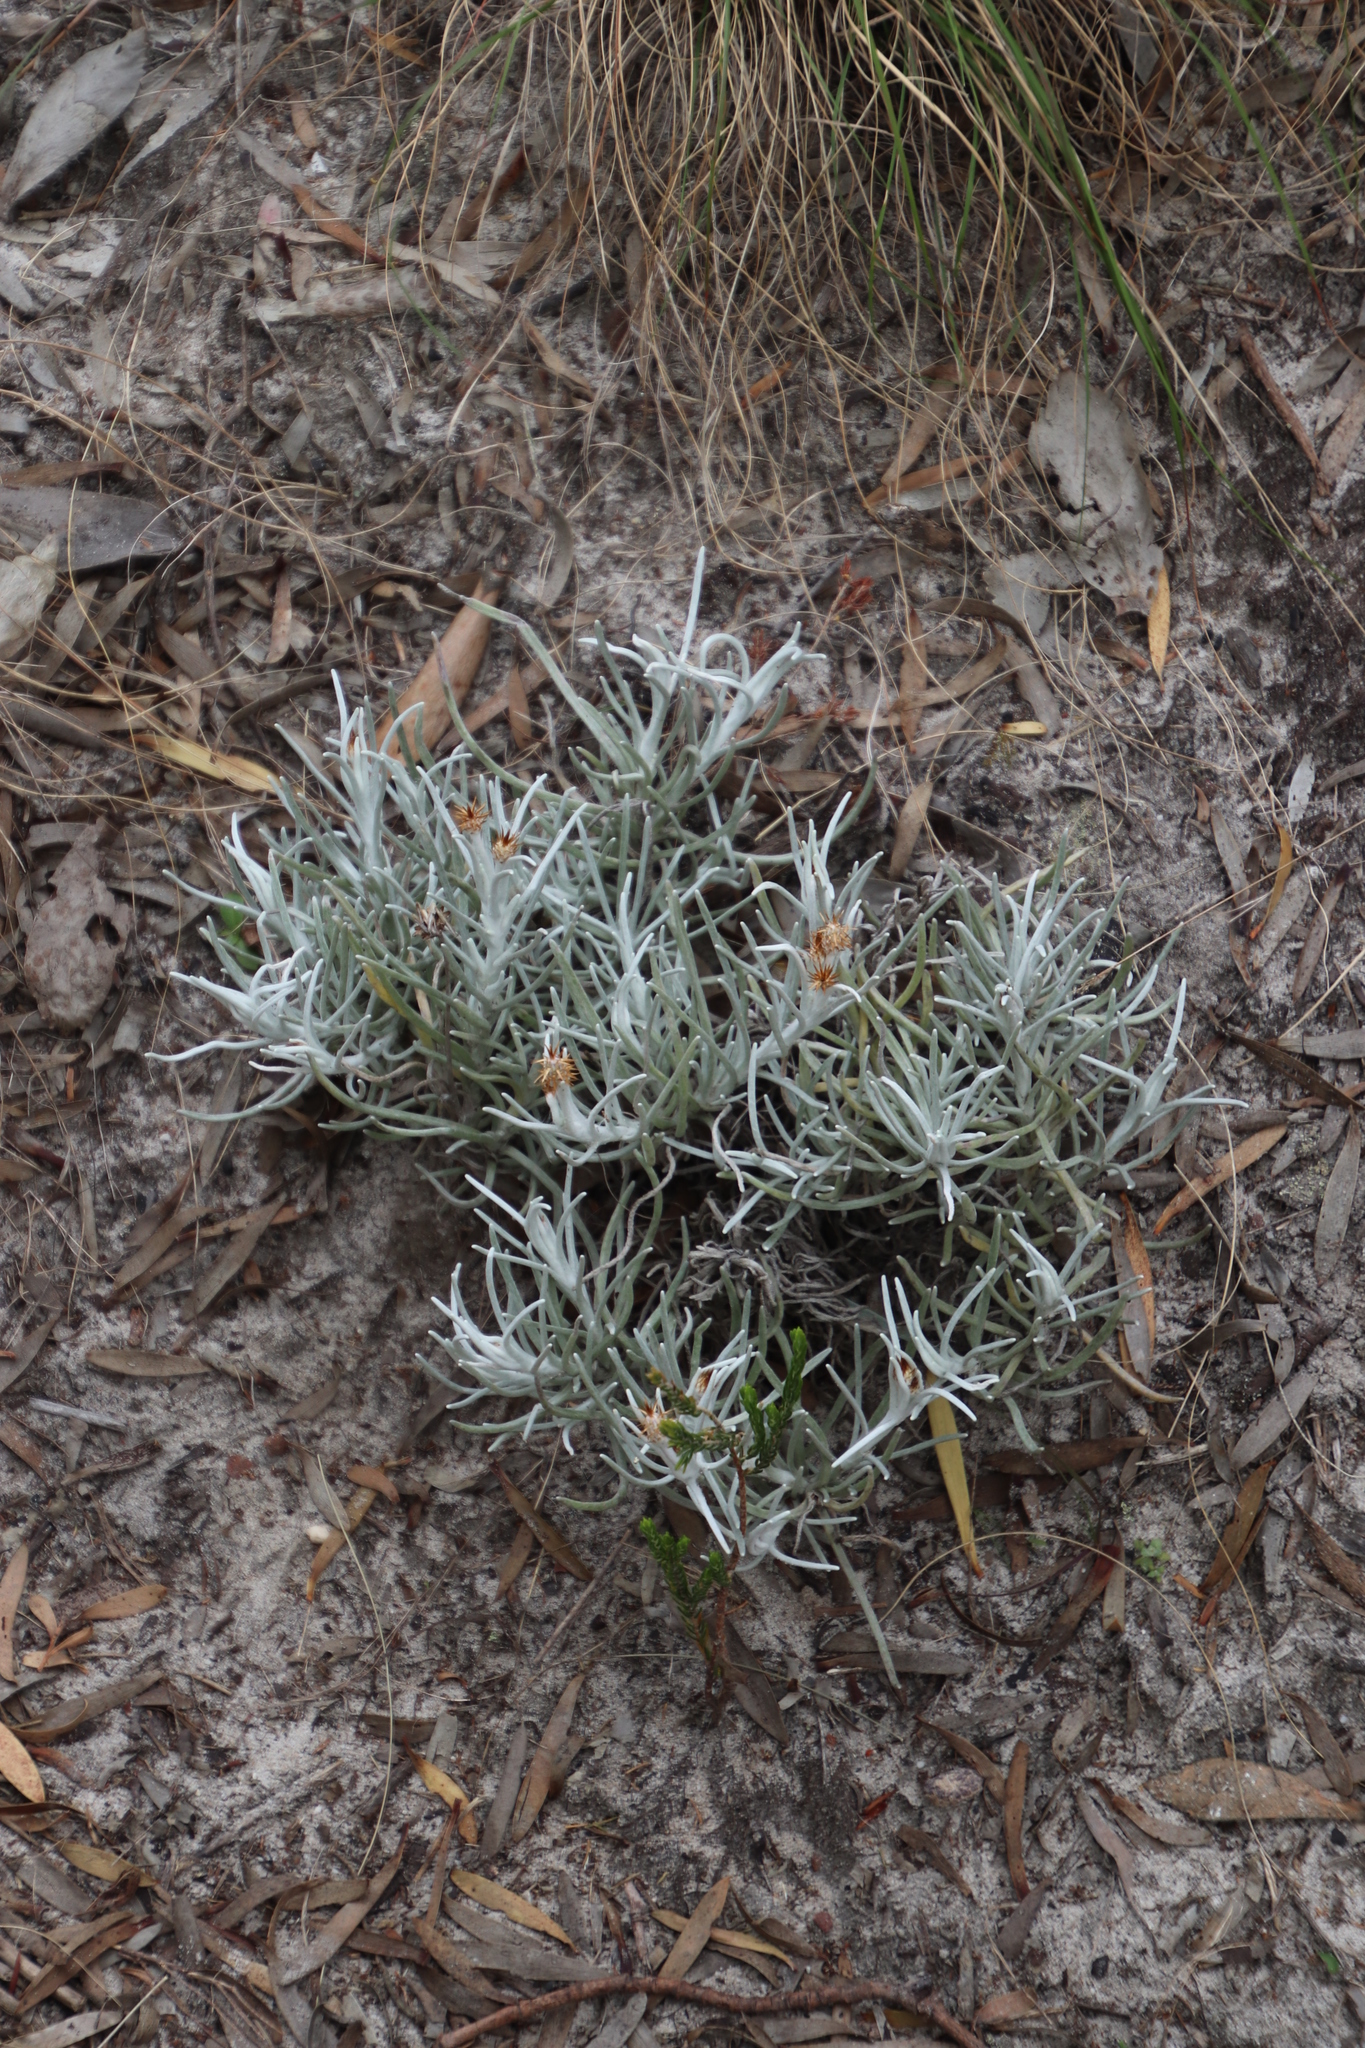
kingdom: Plantae
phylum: Tracheophyta
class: Magnoliopsida
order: Asterales
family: Asteraceae
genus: Syncarpha
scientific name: Syncarpha gnaphaloides
